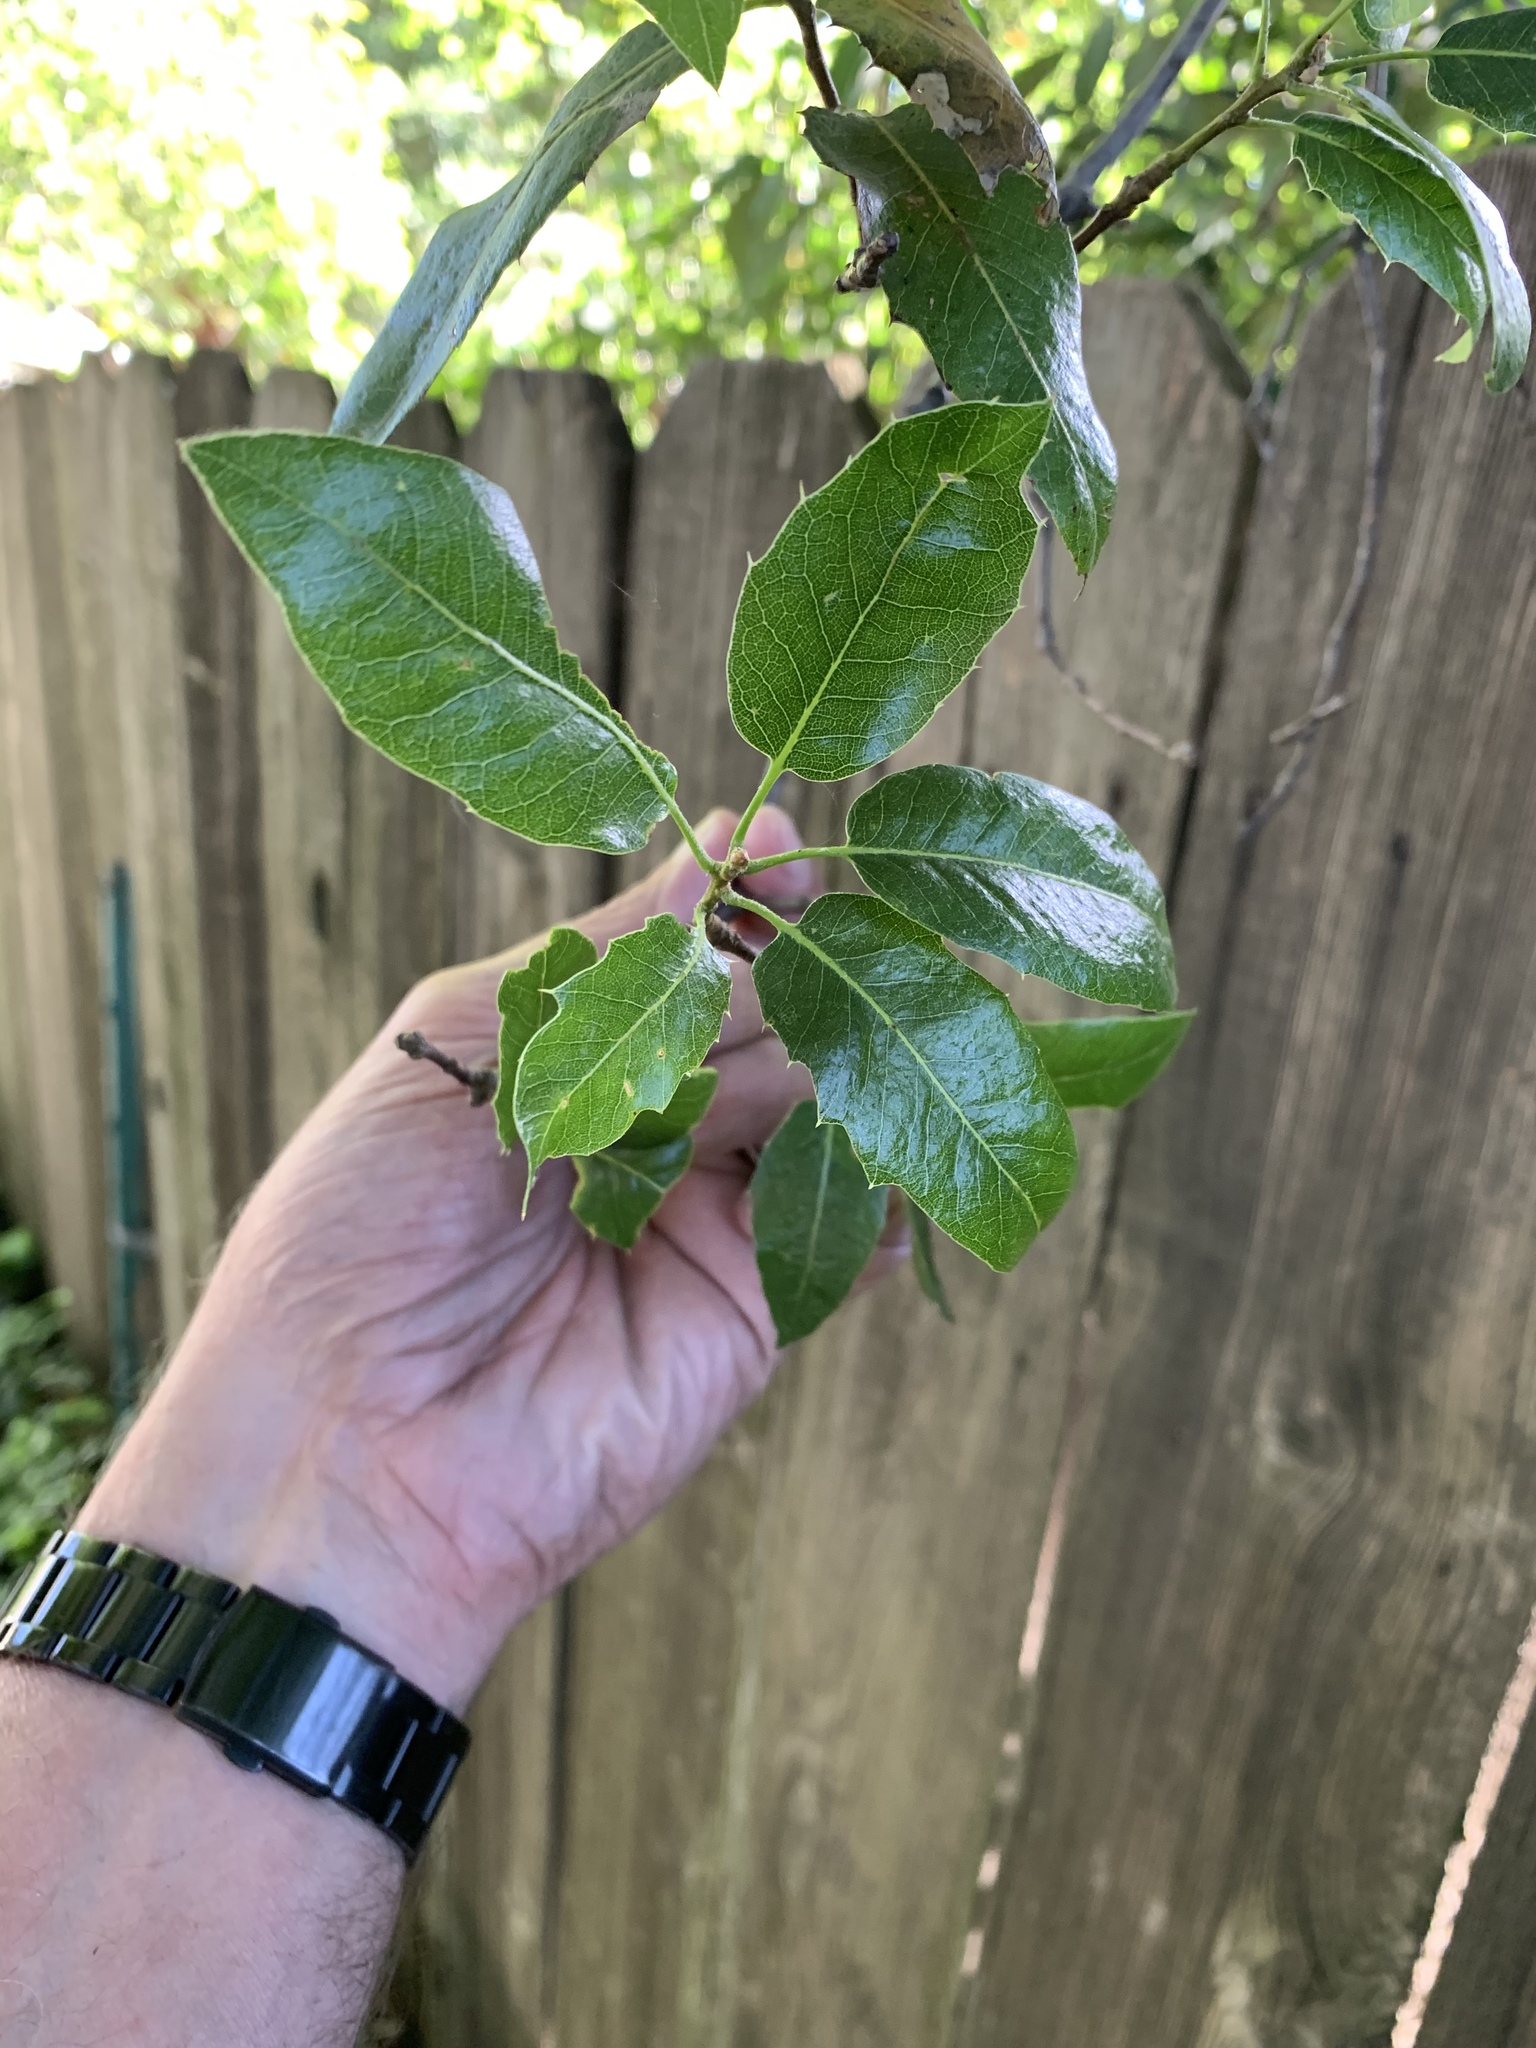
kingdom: Plantae
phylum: Tracheophyta
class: Magnoliopsida
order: Fagales
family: Fagaceae
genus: Quercus
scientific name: Quercus wislizeni
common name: Interior live oak
